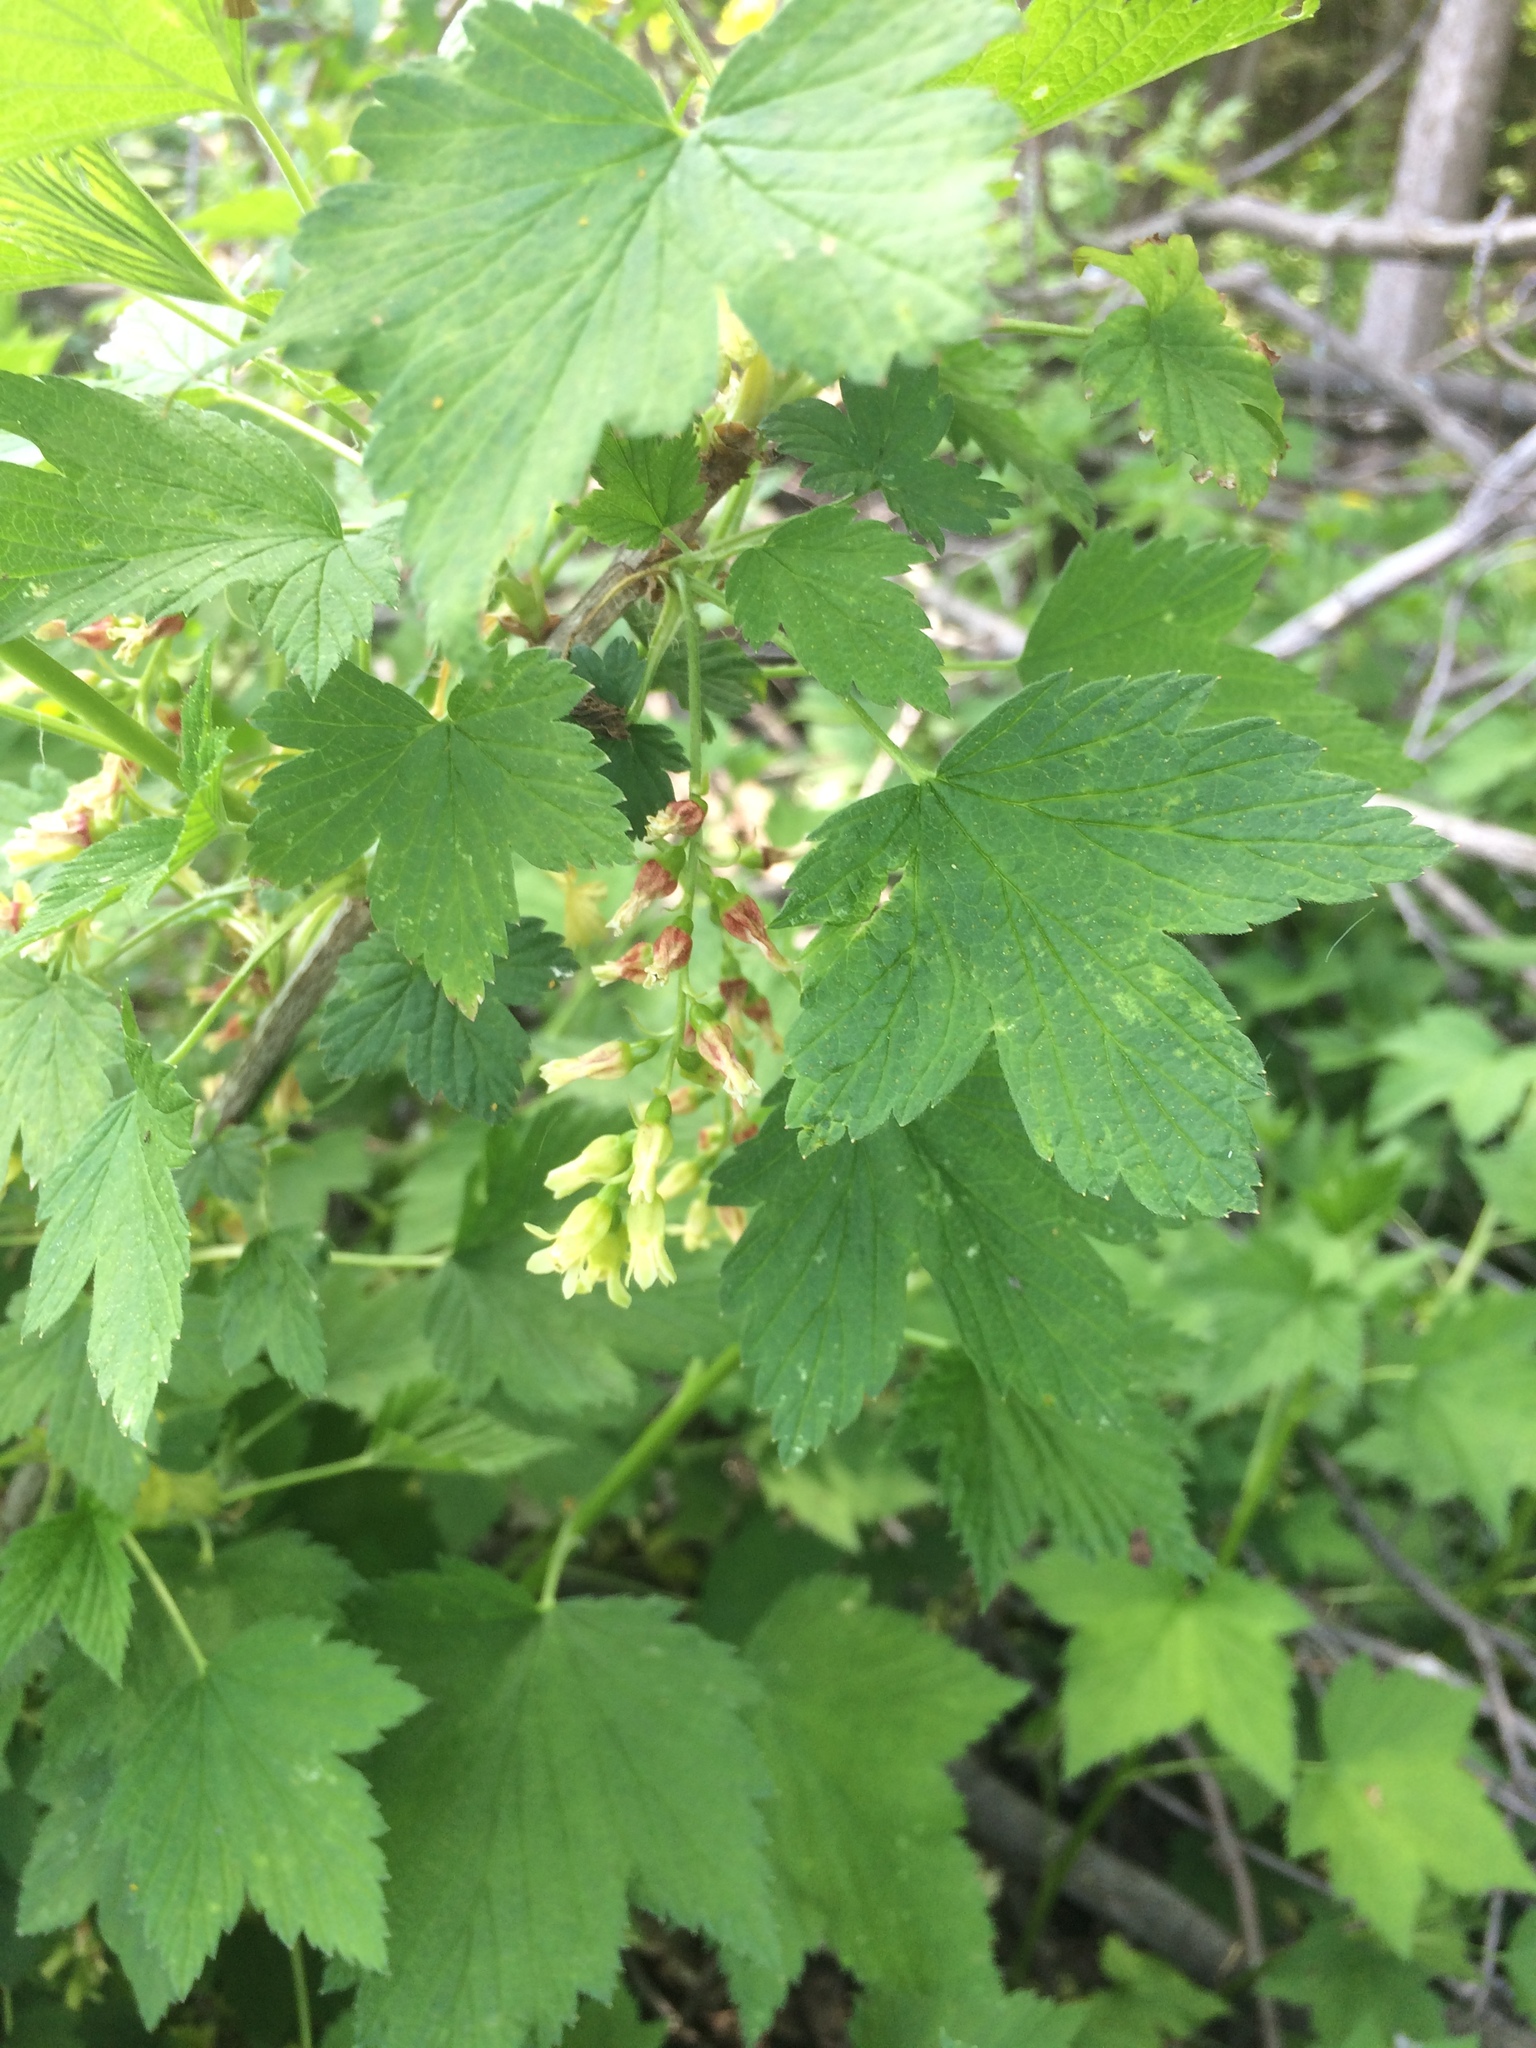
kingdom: Plantae
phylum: Tracheophyta
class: Magnoliopsida
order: Saxifragales
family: Grossulariaceae
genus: Ribes
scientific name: Ribes americanum
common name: American black currant
